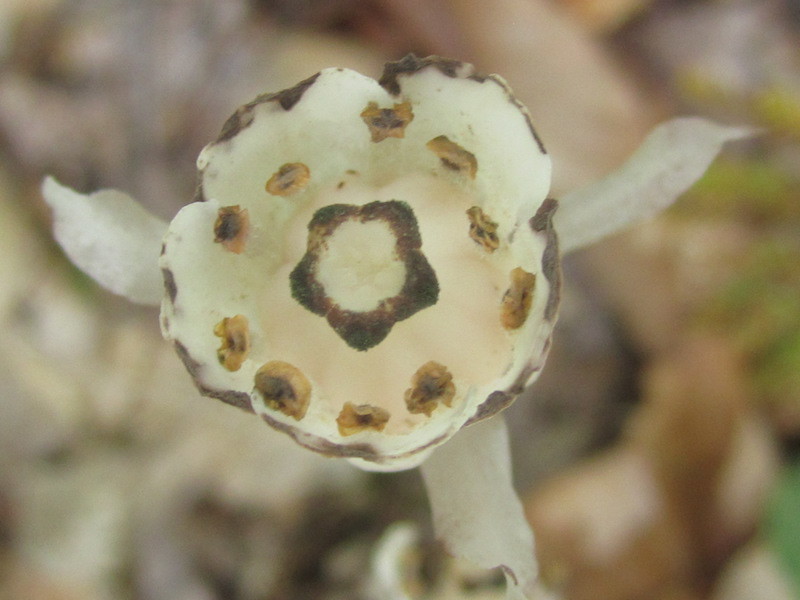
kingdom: Plantae
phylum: Tracheophyta
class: Magnoliopsida
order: Ericales
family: Ericaceae
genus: Monotropa
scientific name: Monotropa uniflora
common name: Convulsion root
